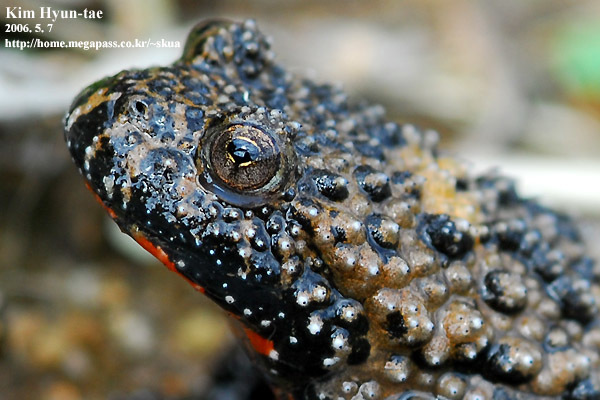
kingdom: Animalia
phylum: Chordata
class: Amphibia
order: Anura
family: Bombinatoridae
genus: Bombina
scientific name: Bombina orientalis
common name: Oriental firebelly toad
